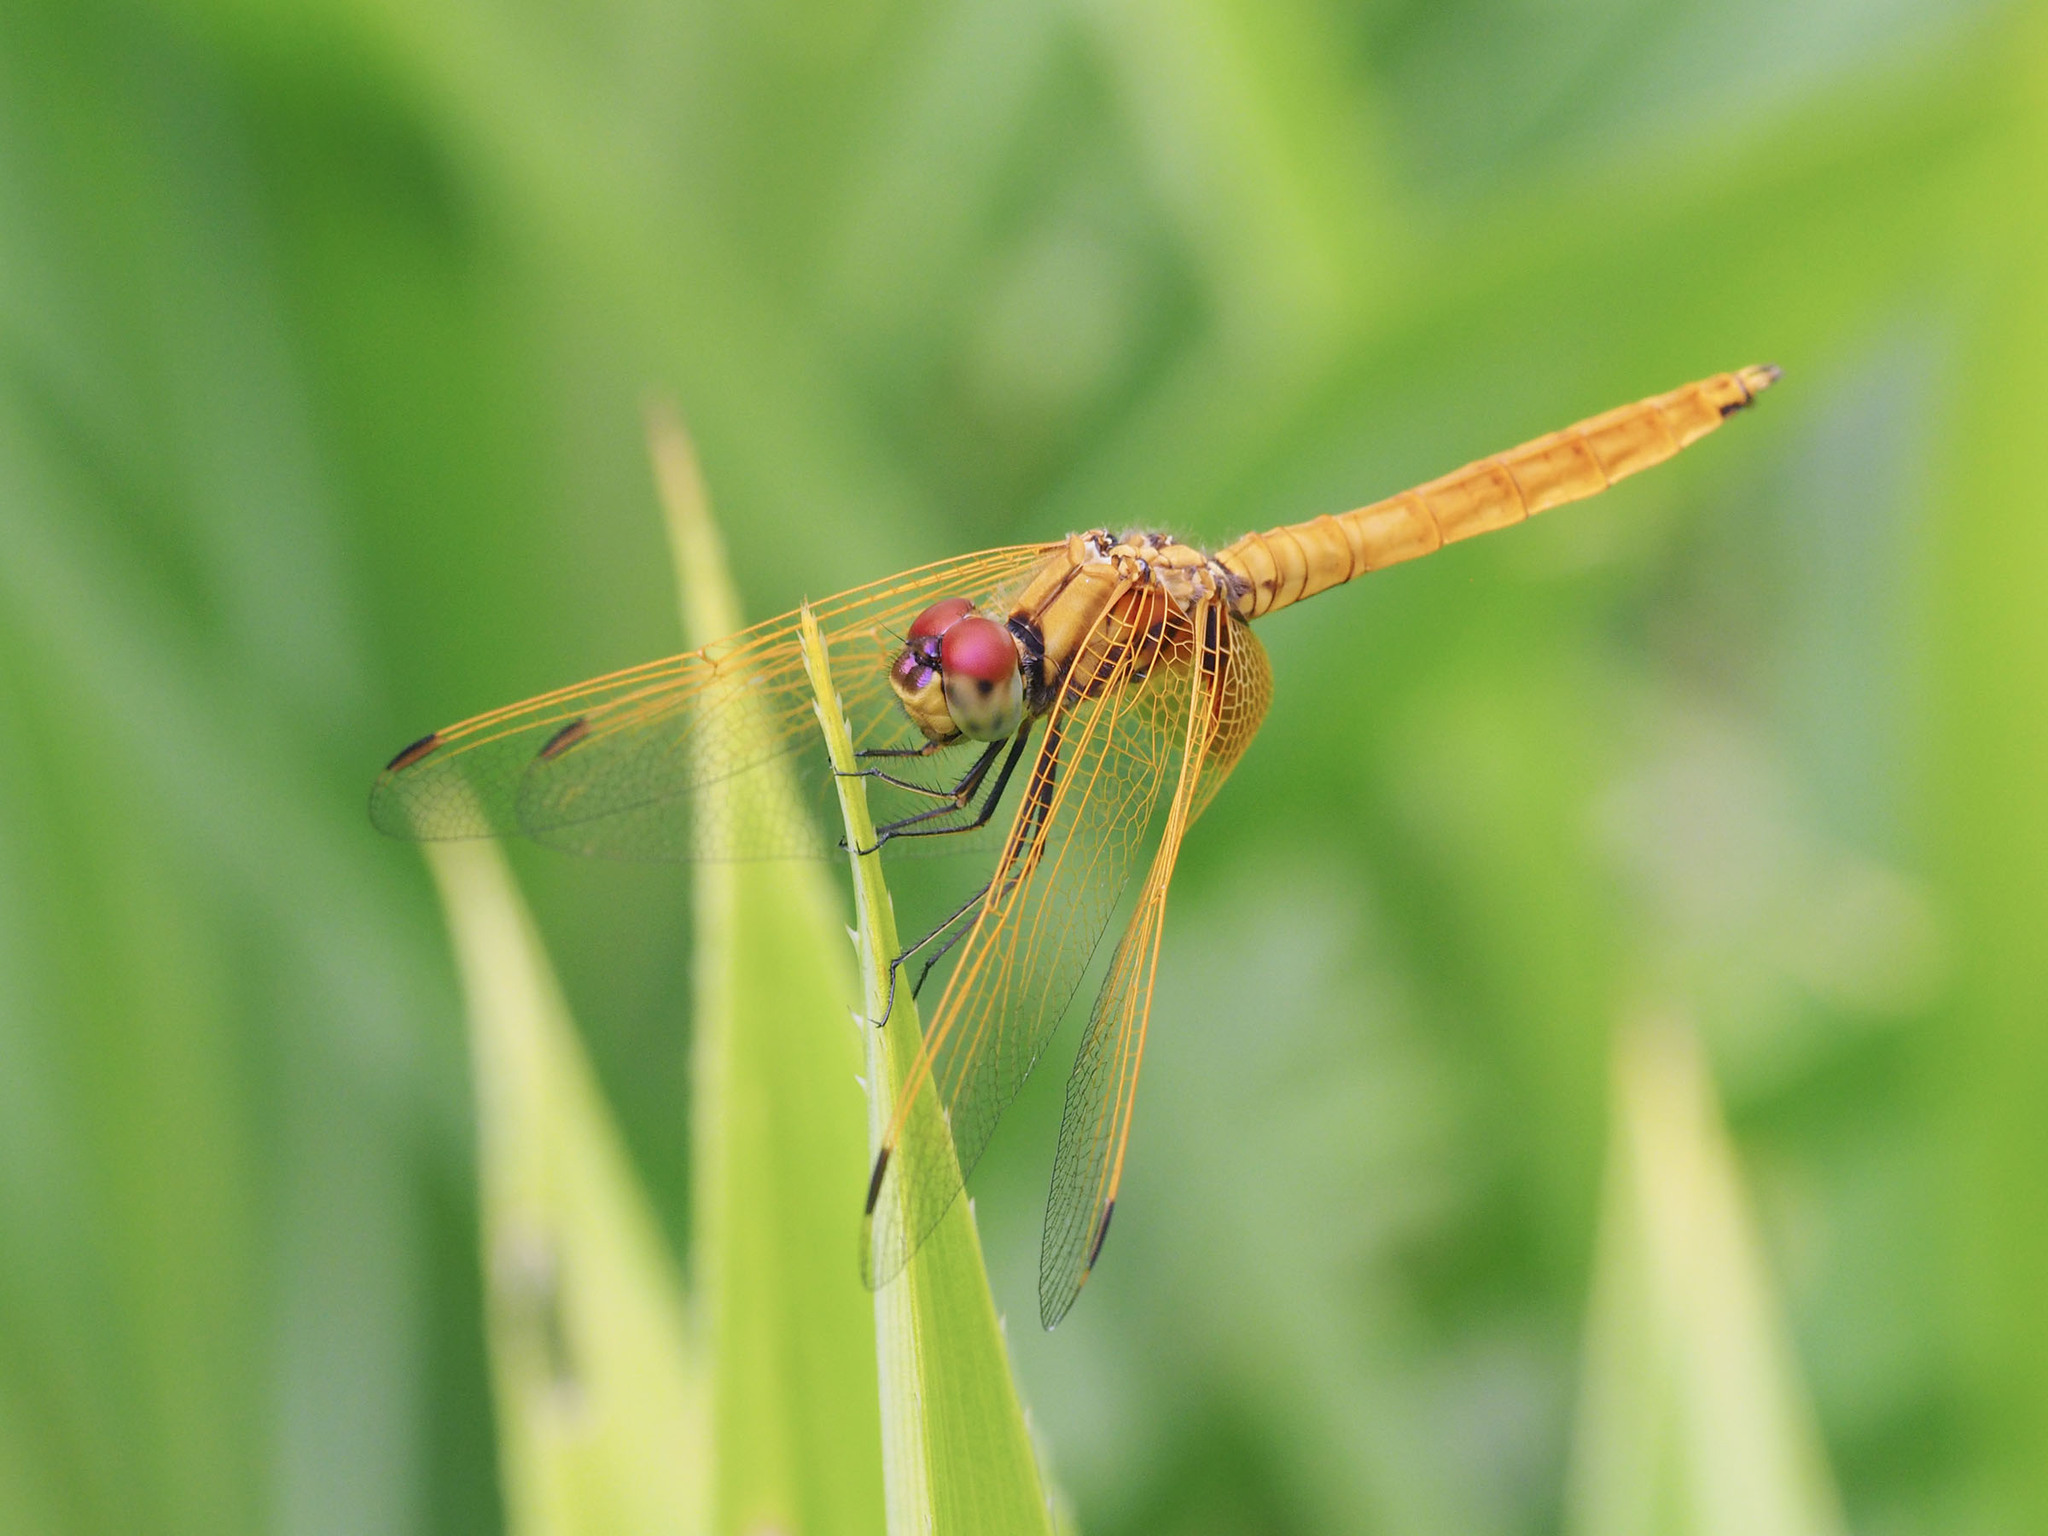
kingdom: Animalia
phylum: Arthropoda
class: Insecta
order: Odonata
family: Libellulidae
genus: Trithemis
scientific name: Trithemis aurora
